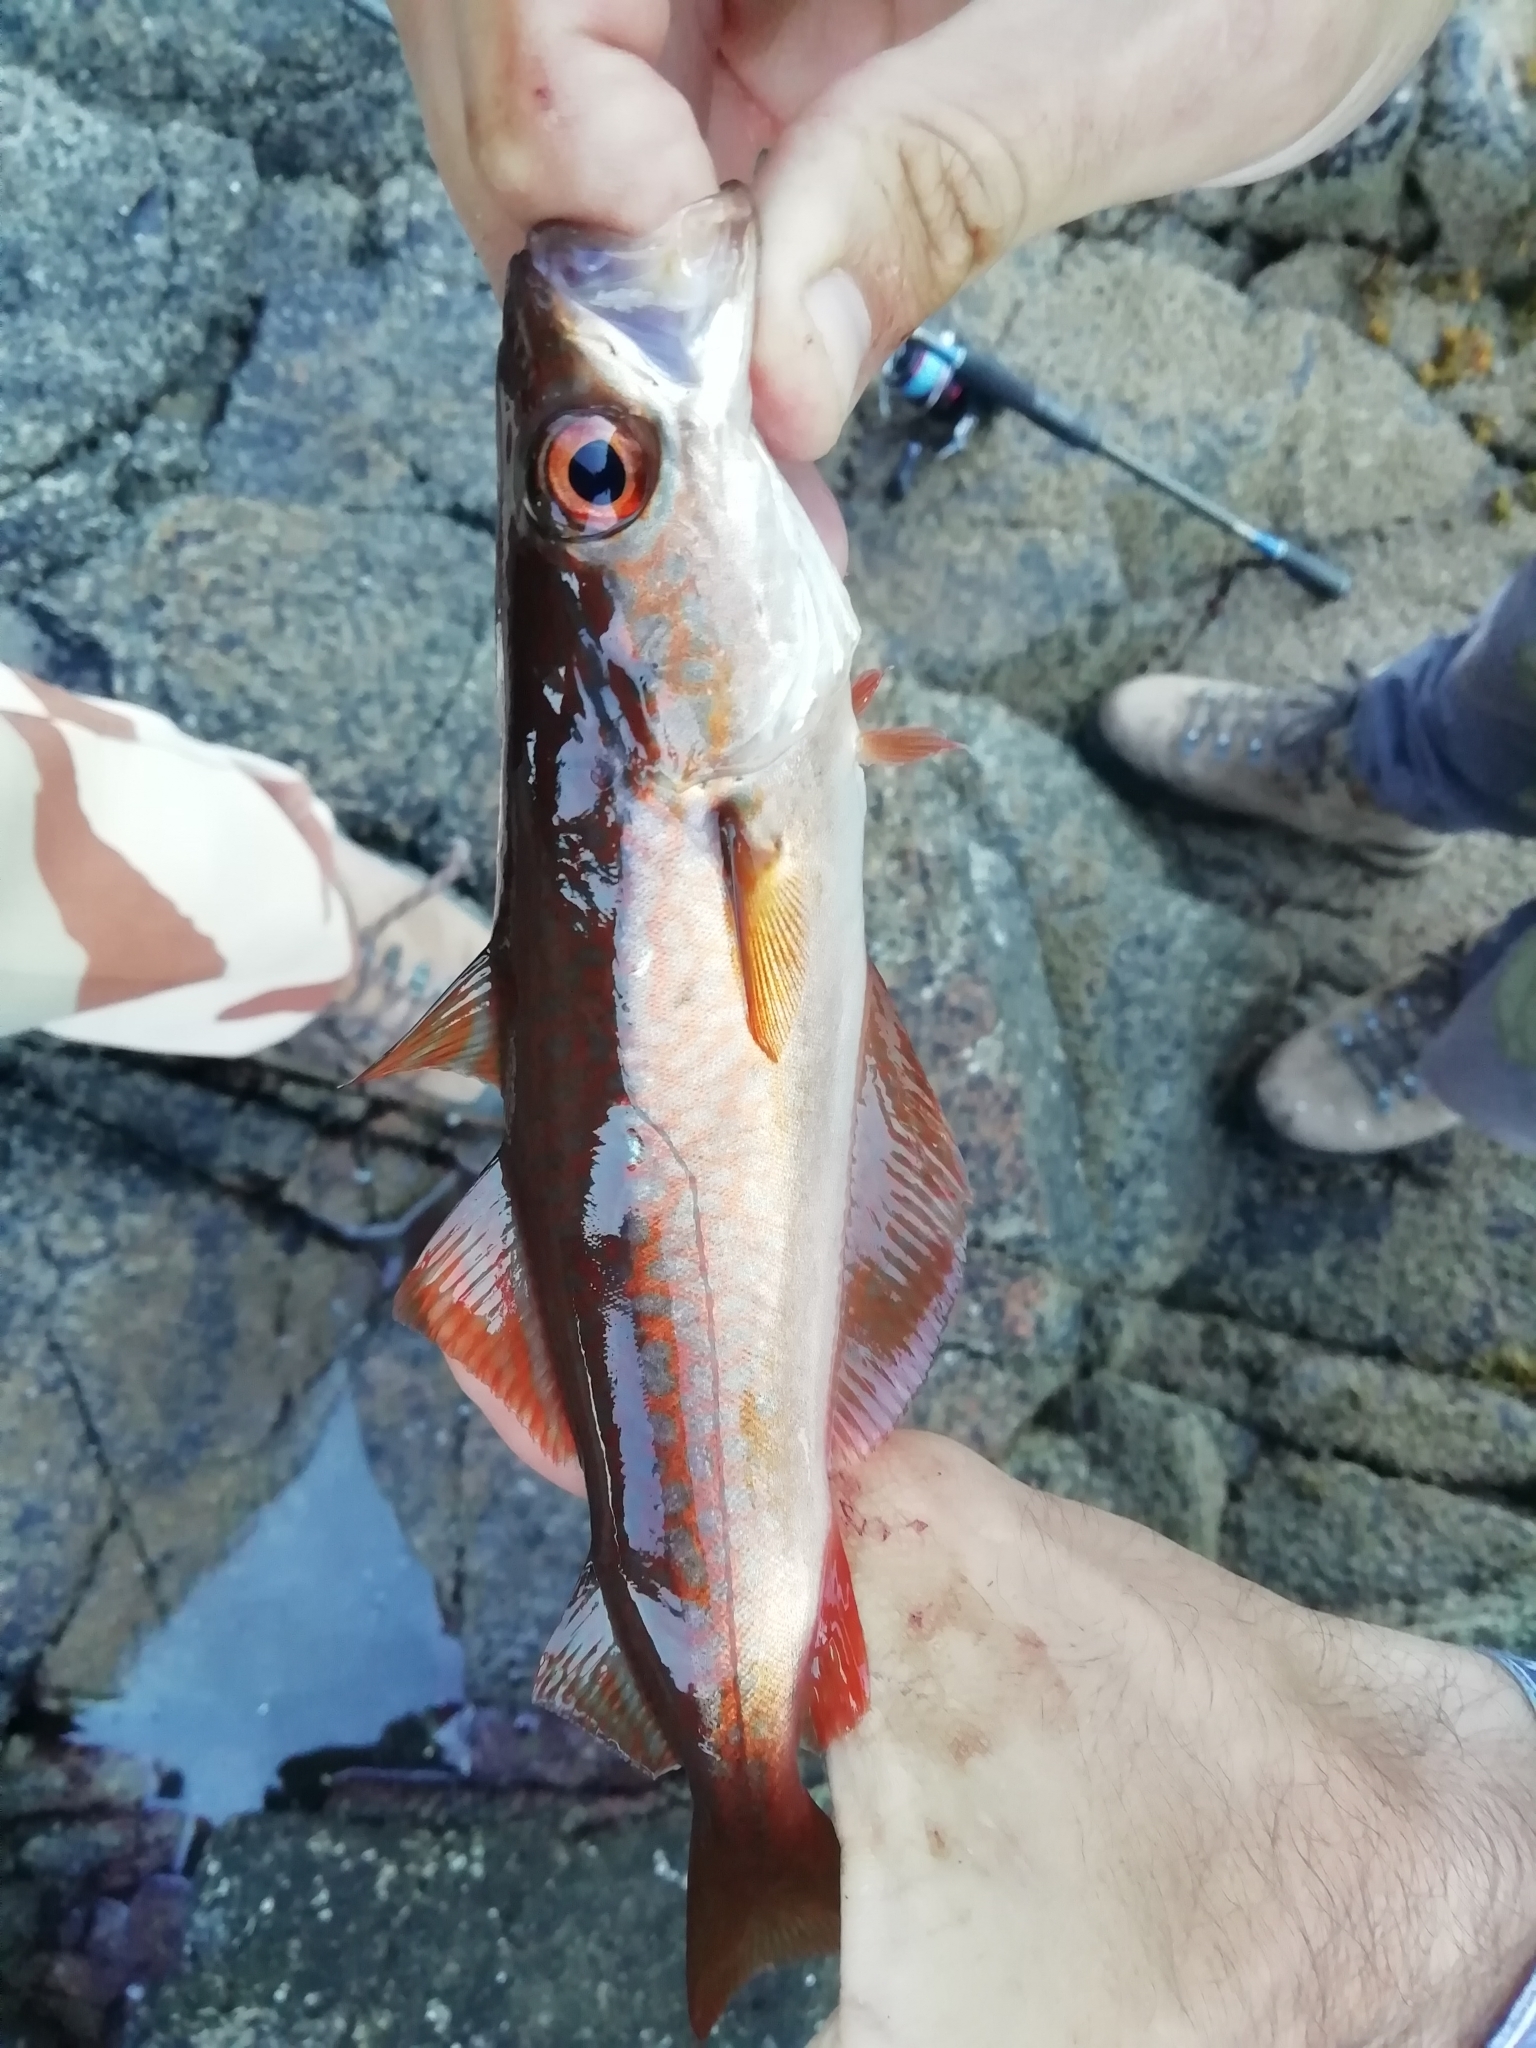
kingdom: Animalia
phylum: Chordata
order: Gadiformes
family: Gadidae
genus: Pollachius
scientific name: Pollachius pollachius
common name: Pollack
